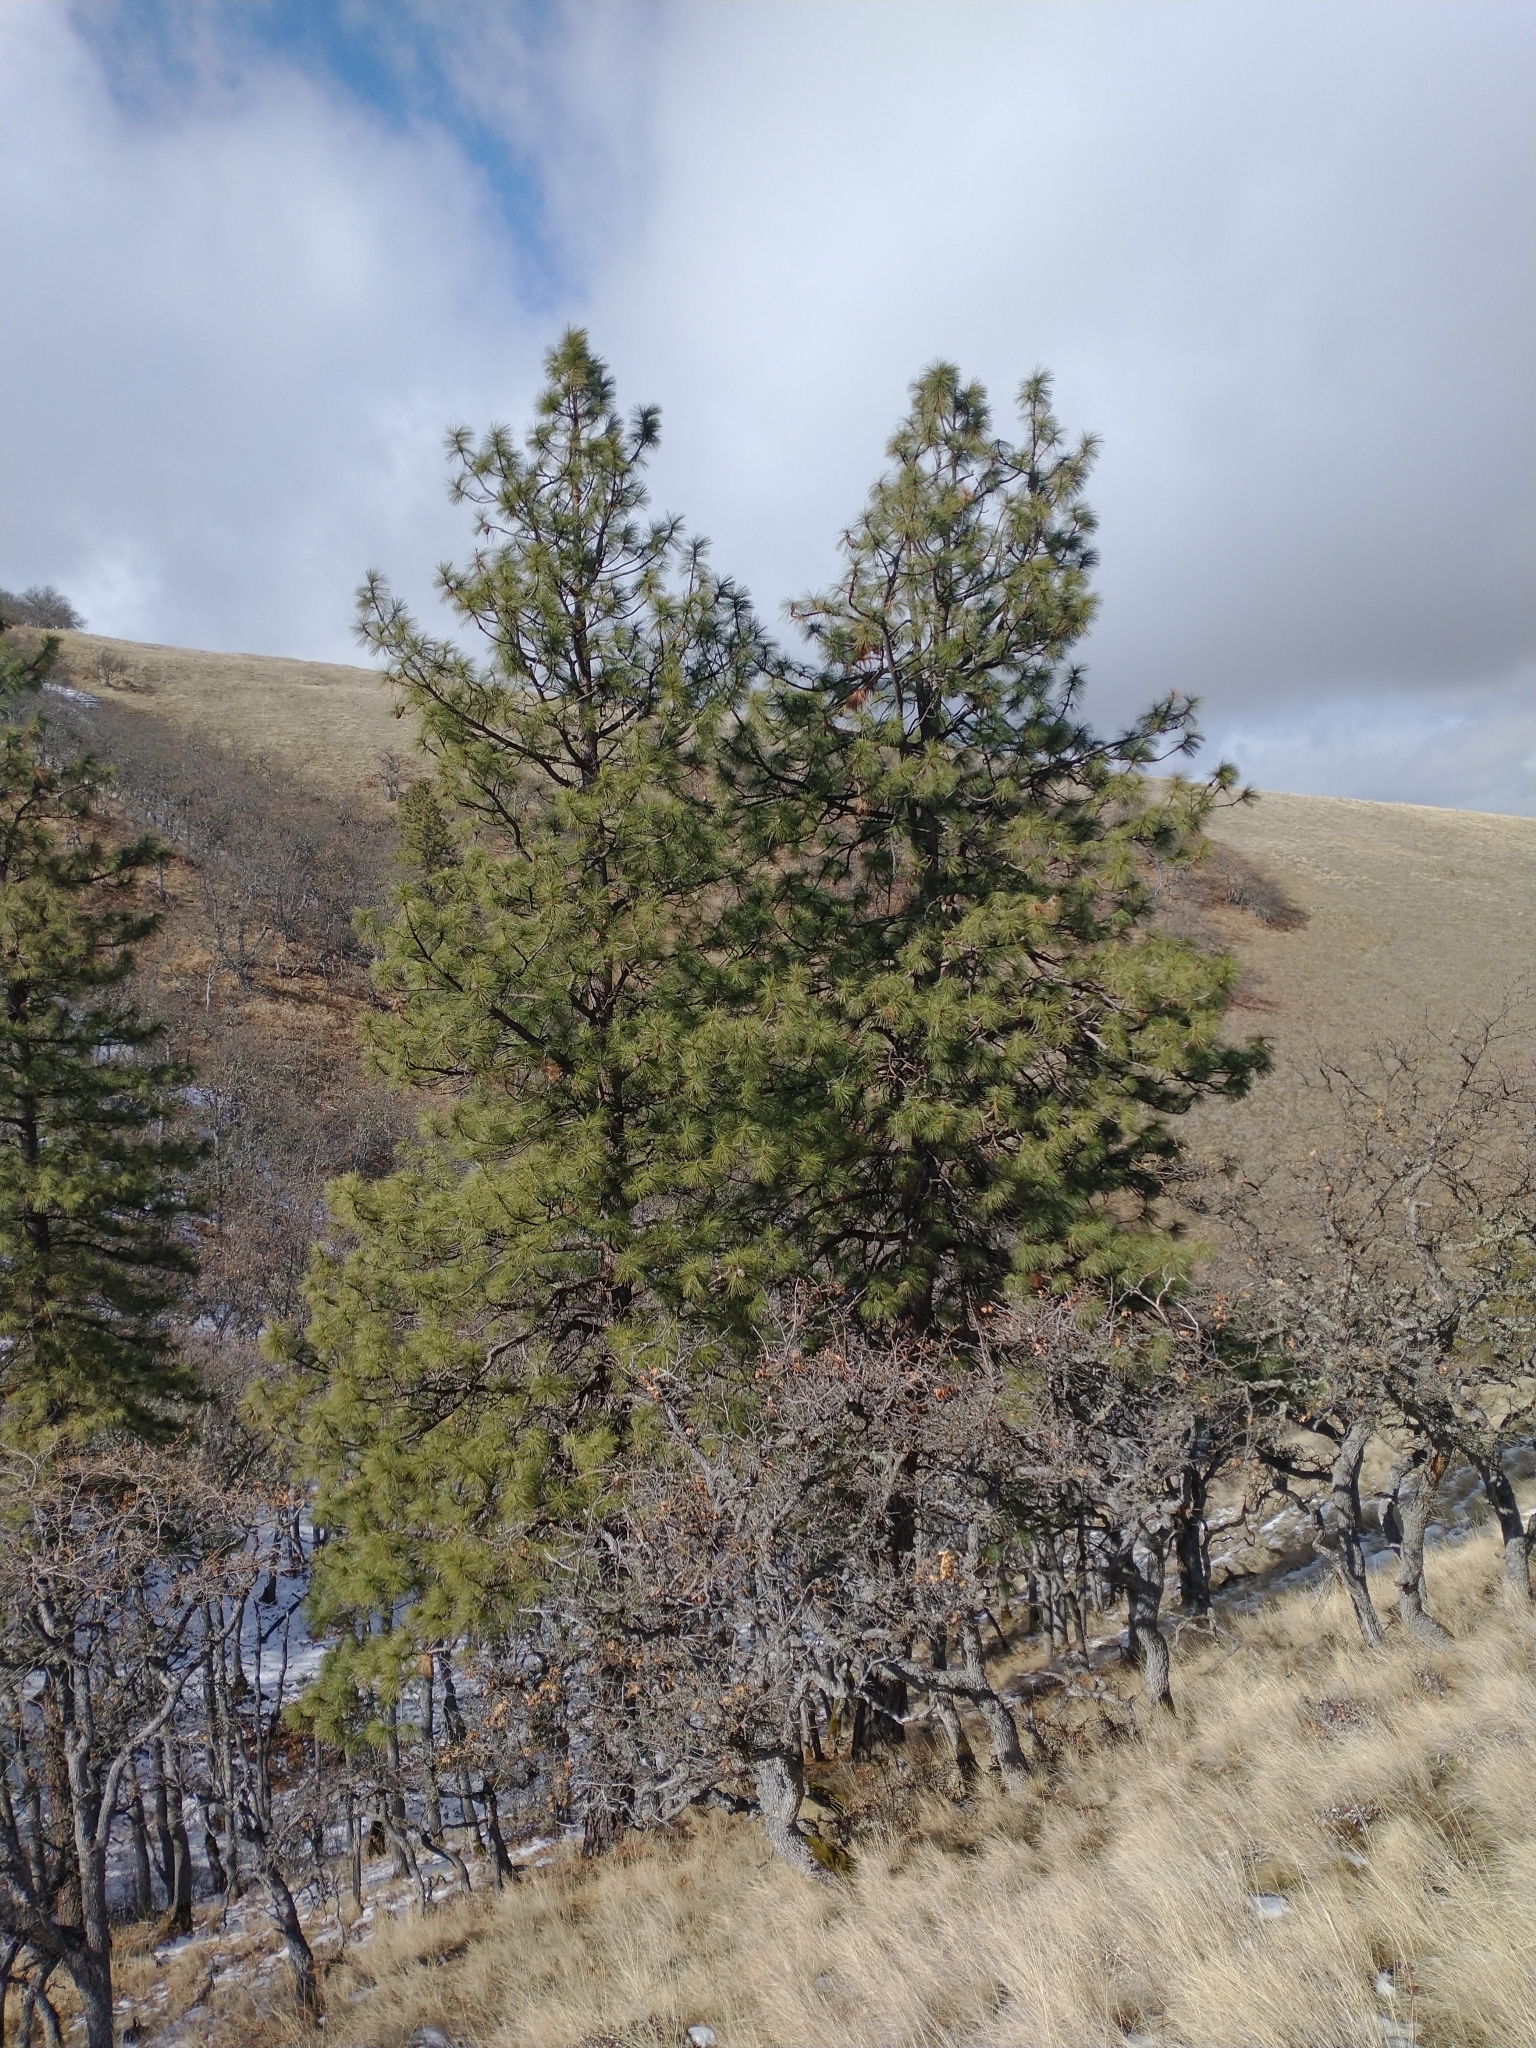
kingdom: Plantae
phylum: Tracheophyta
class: Pinopsida
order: Pinales
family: Pinaceae
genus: Pinus
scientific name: Pinus ponderosa
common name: Western yellow-pine
